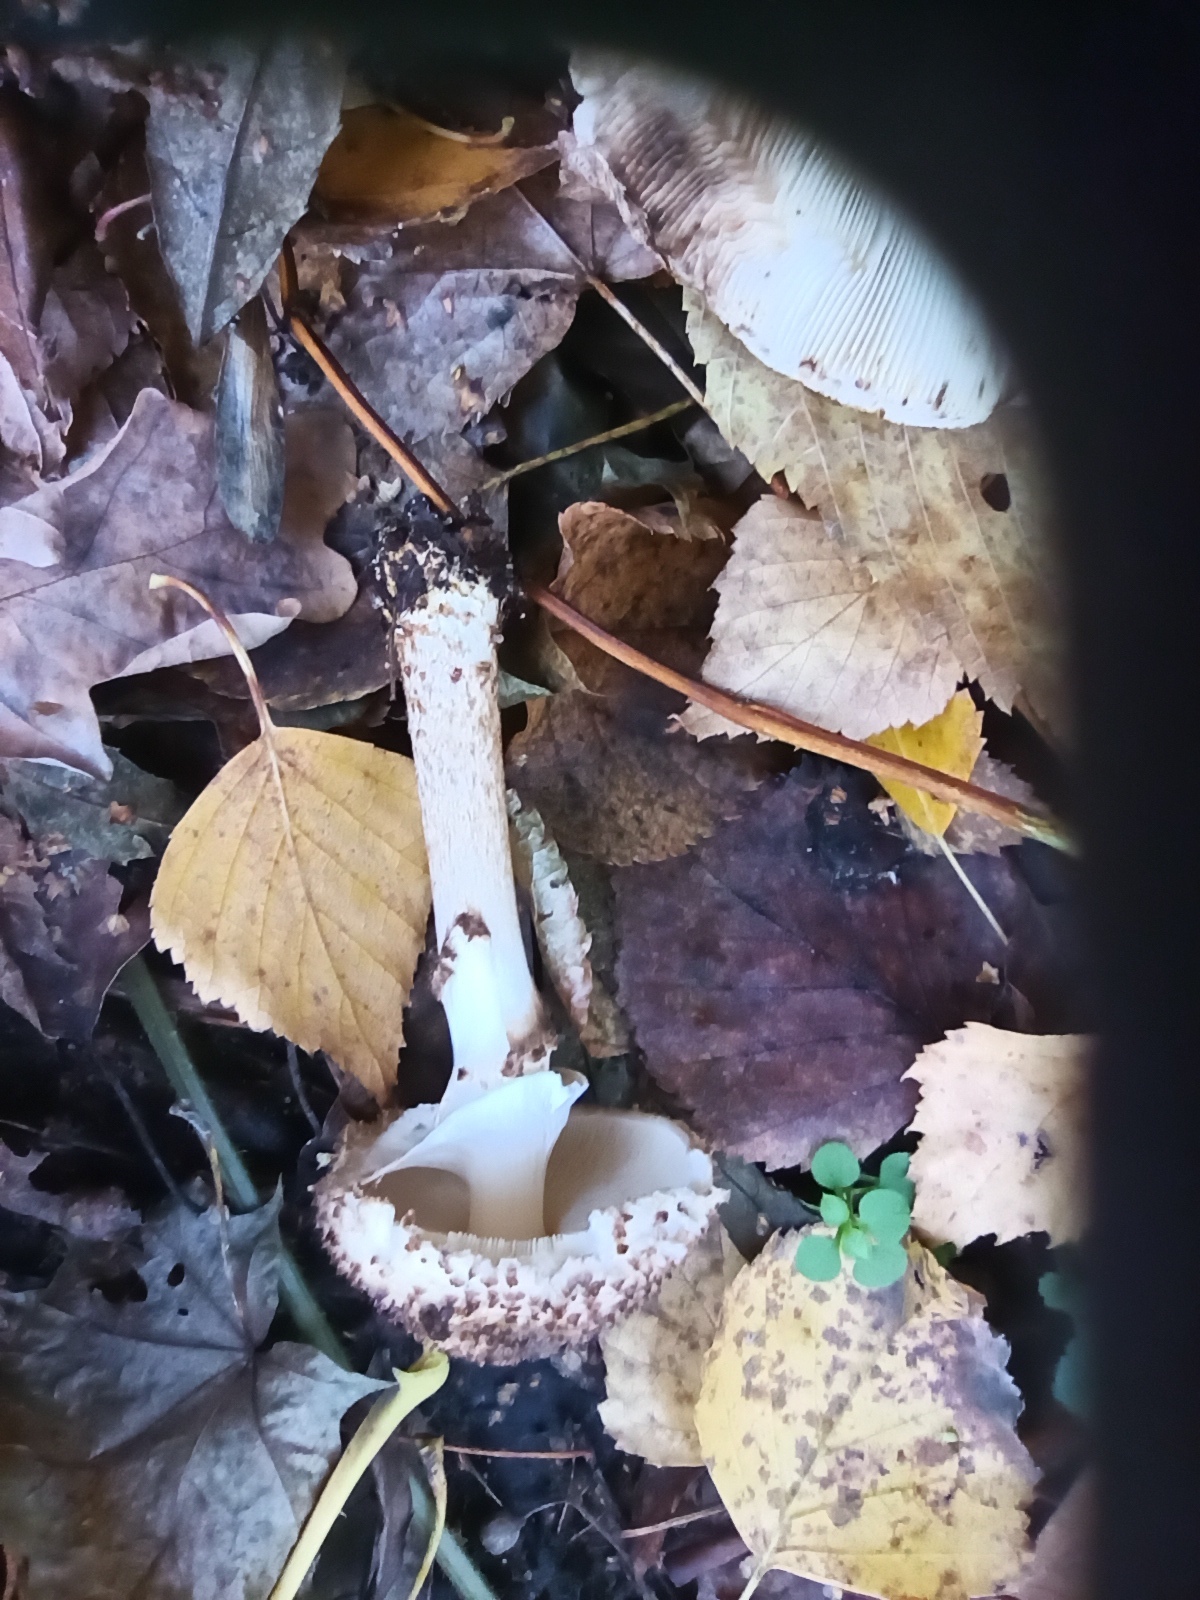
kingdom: Fungi
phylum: Basidiomycota
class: Agaricomycetes
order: Agaricales
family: Agaricaceae
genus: Echinoderma
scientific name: Echinoderma asperum
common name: Freckled dapperling
